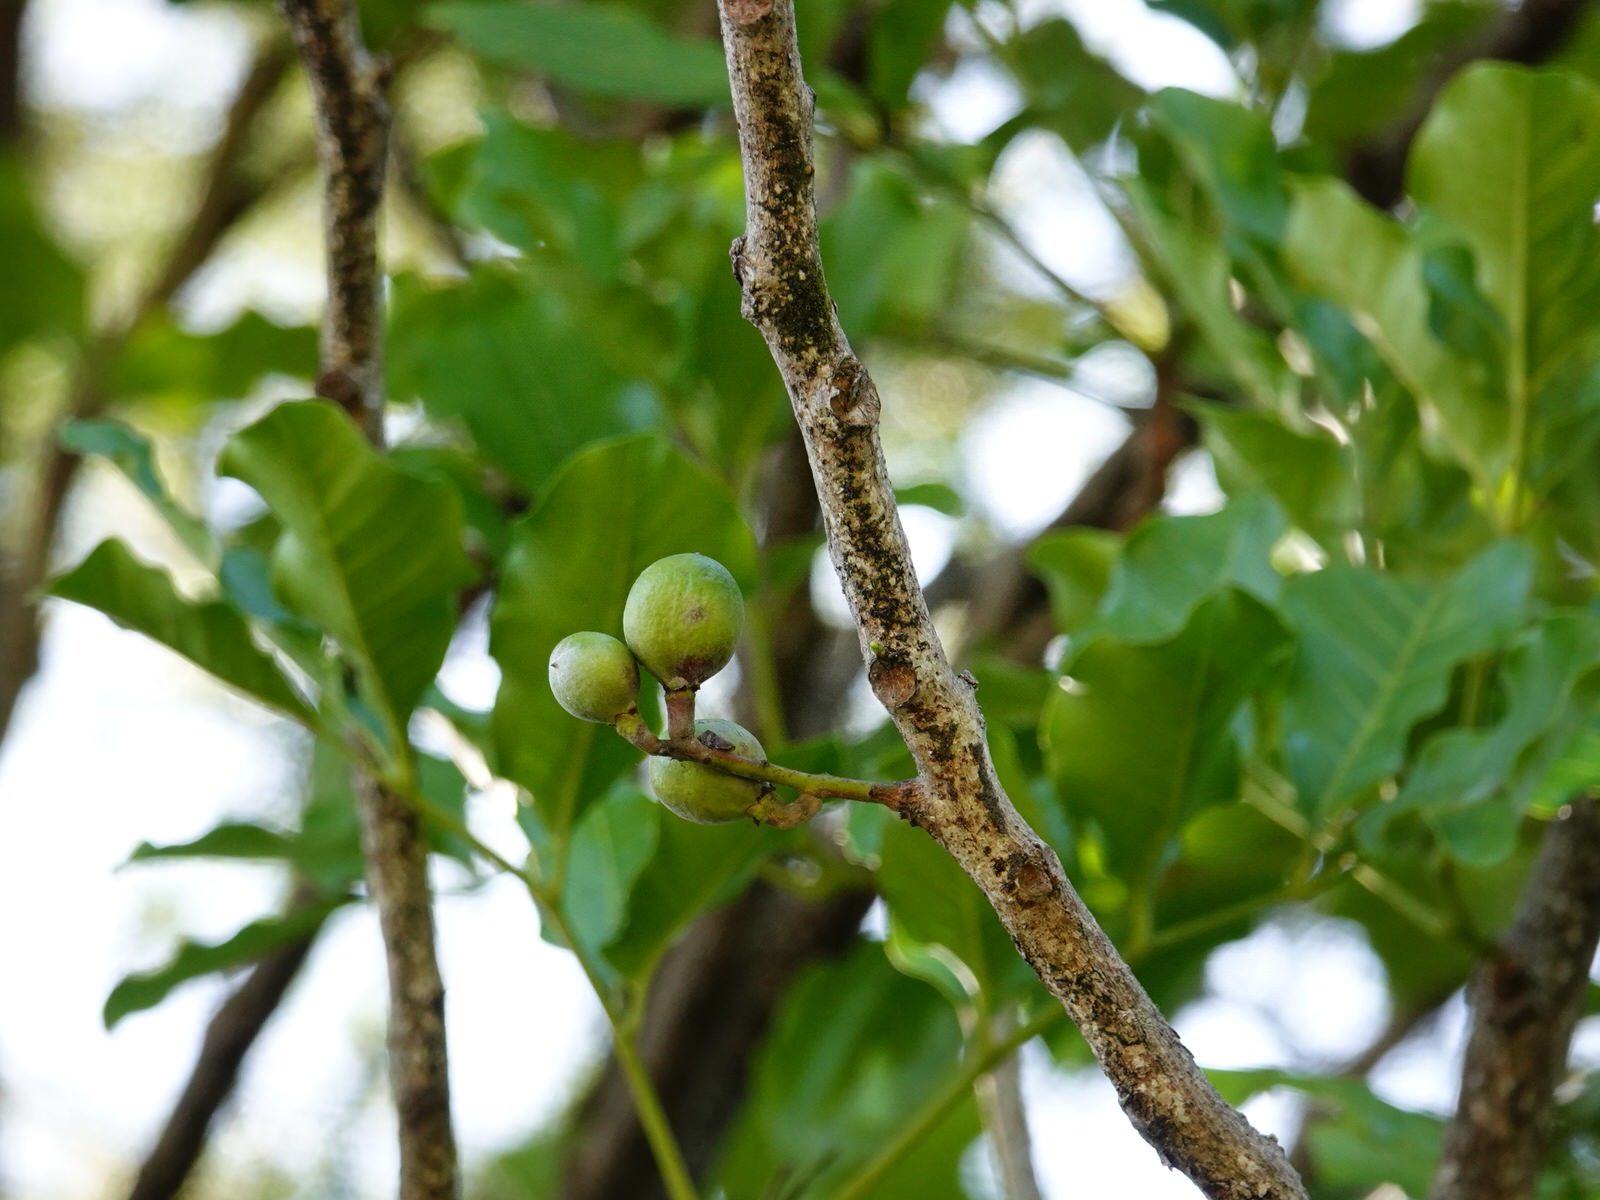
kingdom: Plantae
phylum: Tracheophyta
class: Magnoliopsida
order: Sapindales
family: Meliaceae
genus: Didymocheton
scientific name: Didymocheton spectabilis
